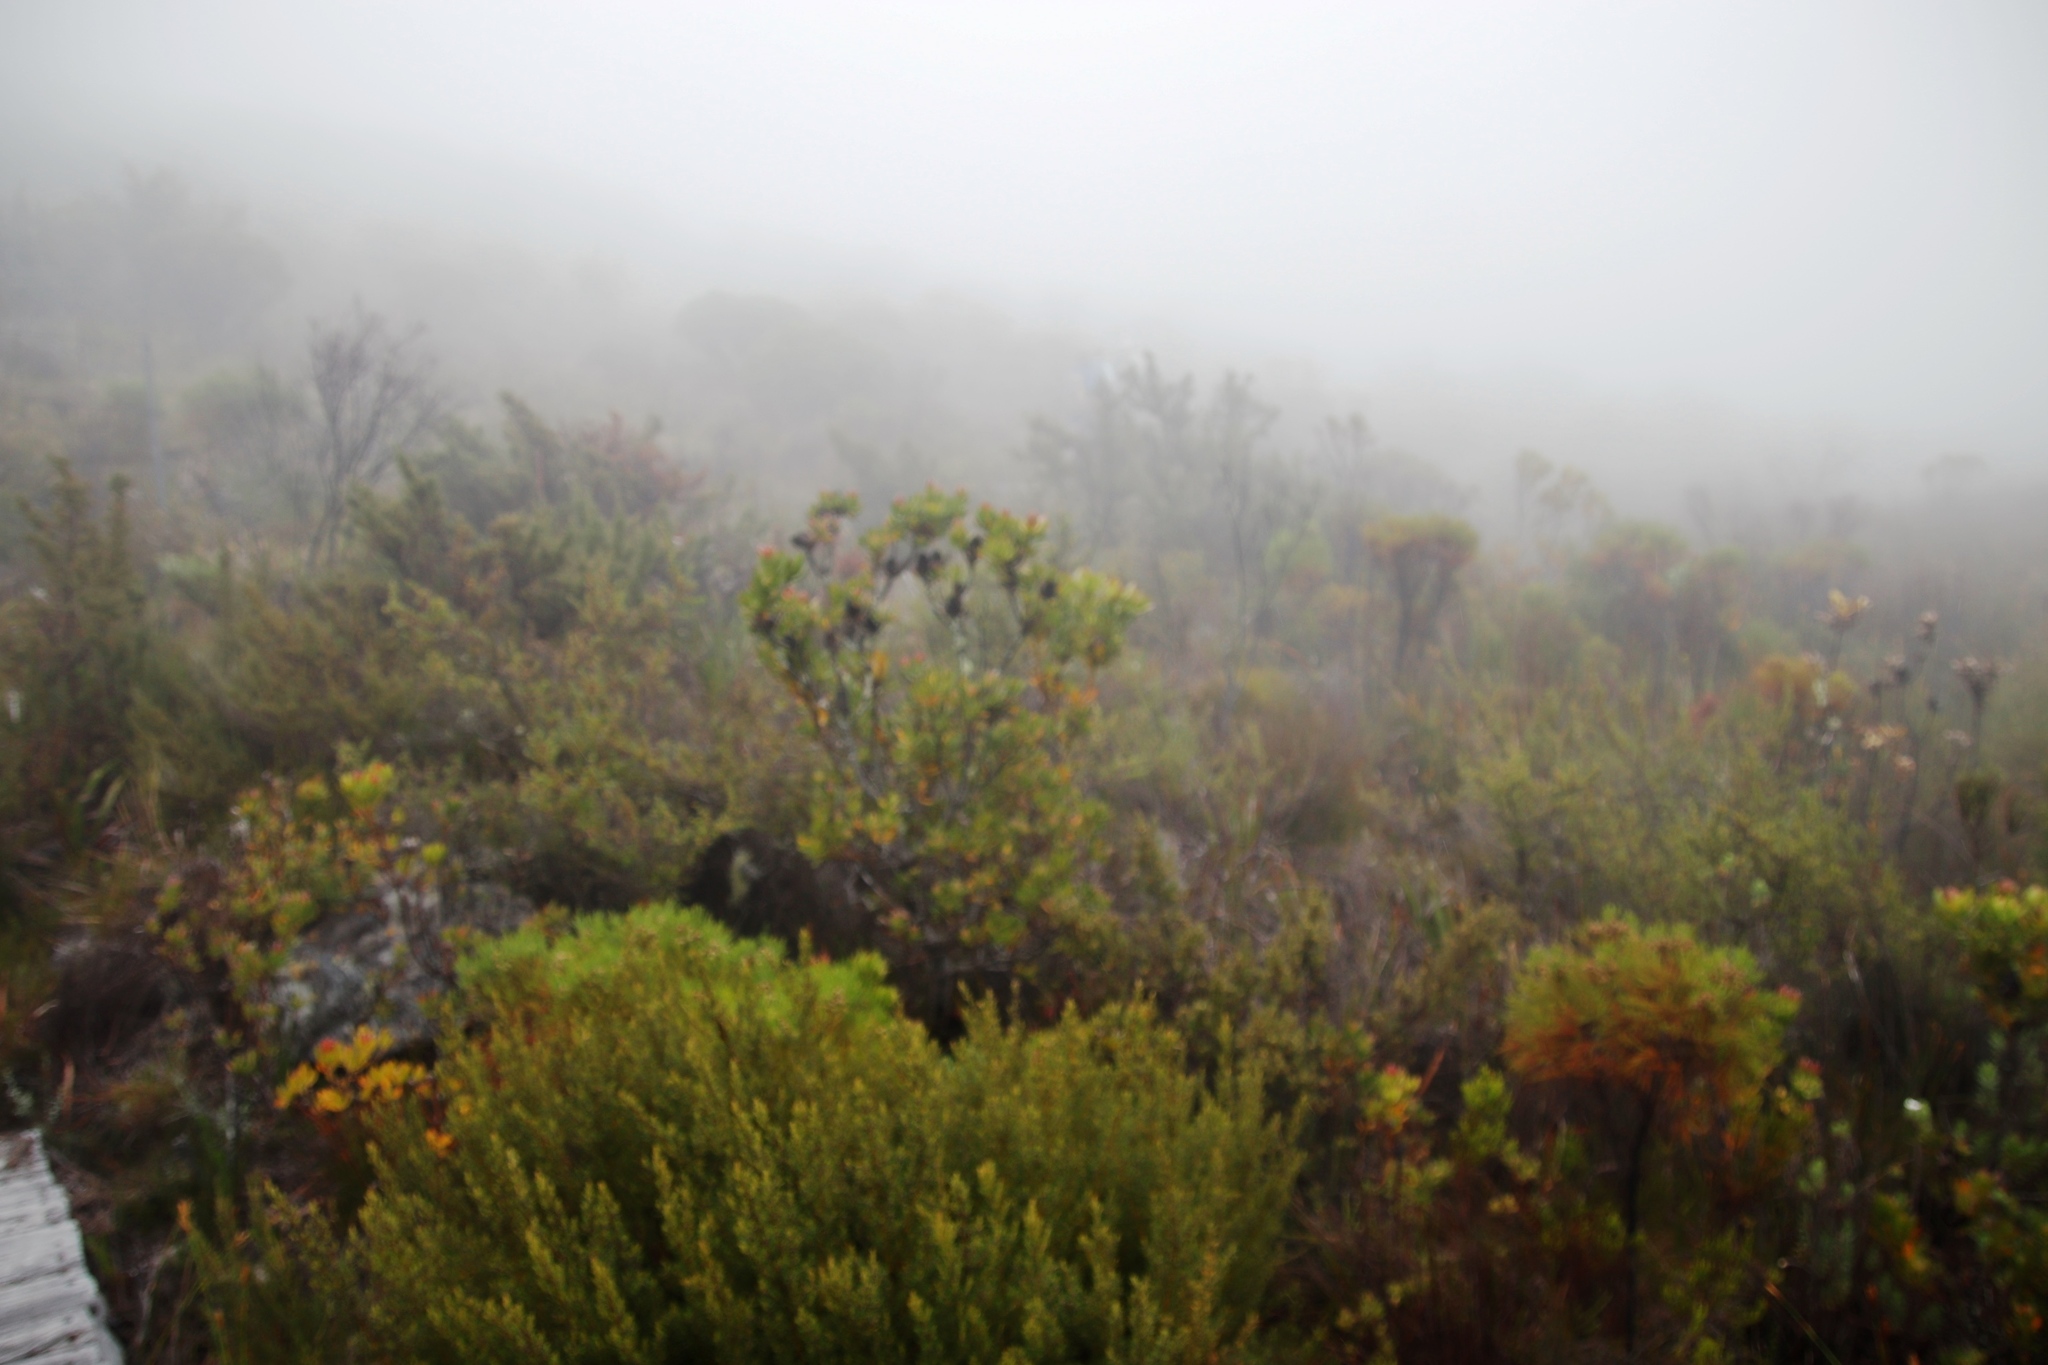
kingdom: Plantae
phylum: Tracheophyta
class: Magnoliopsida
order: Proteales
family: Proteaceae
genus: Leucadendron
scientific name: Leucadendron strobilinum
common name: Mountain rose
